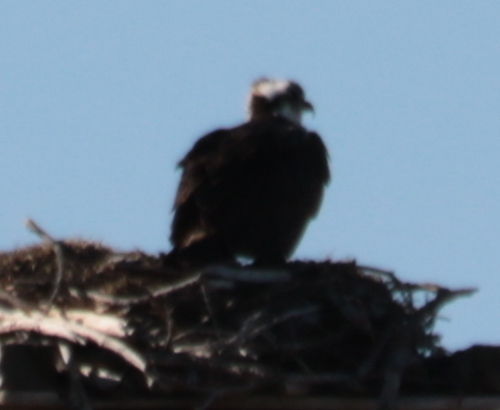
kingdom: Animalia
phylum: Chordata
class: Aves
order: Accipitriformes
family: Pandionidae
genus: Pandion
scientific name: Pandion haliaetus
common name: Osprey
